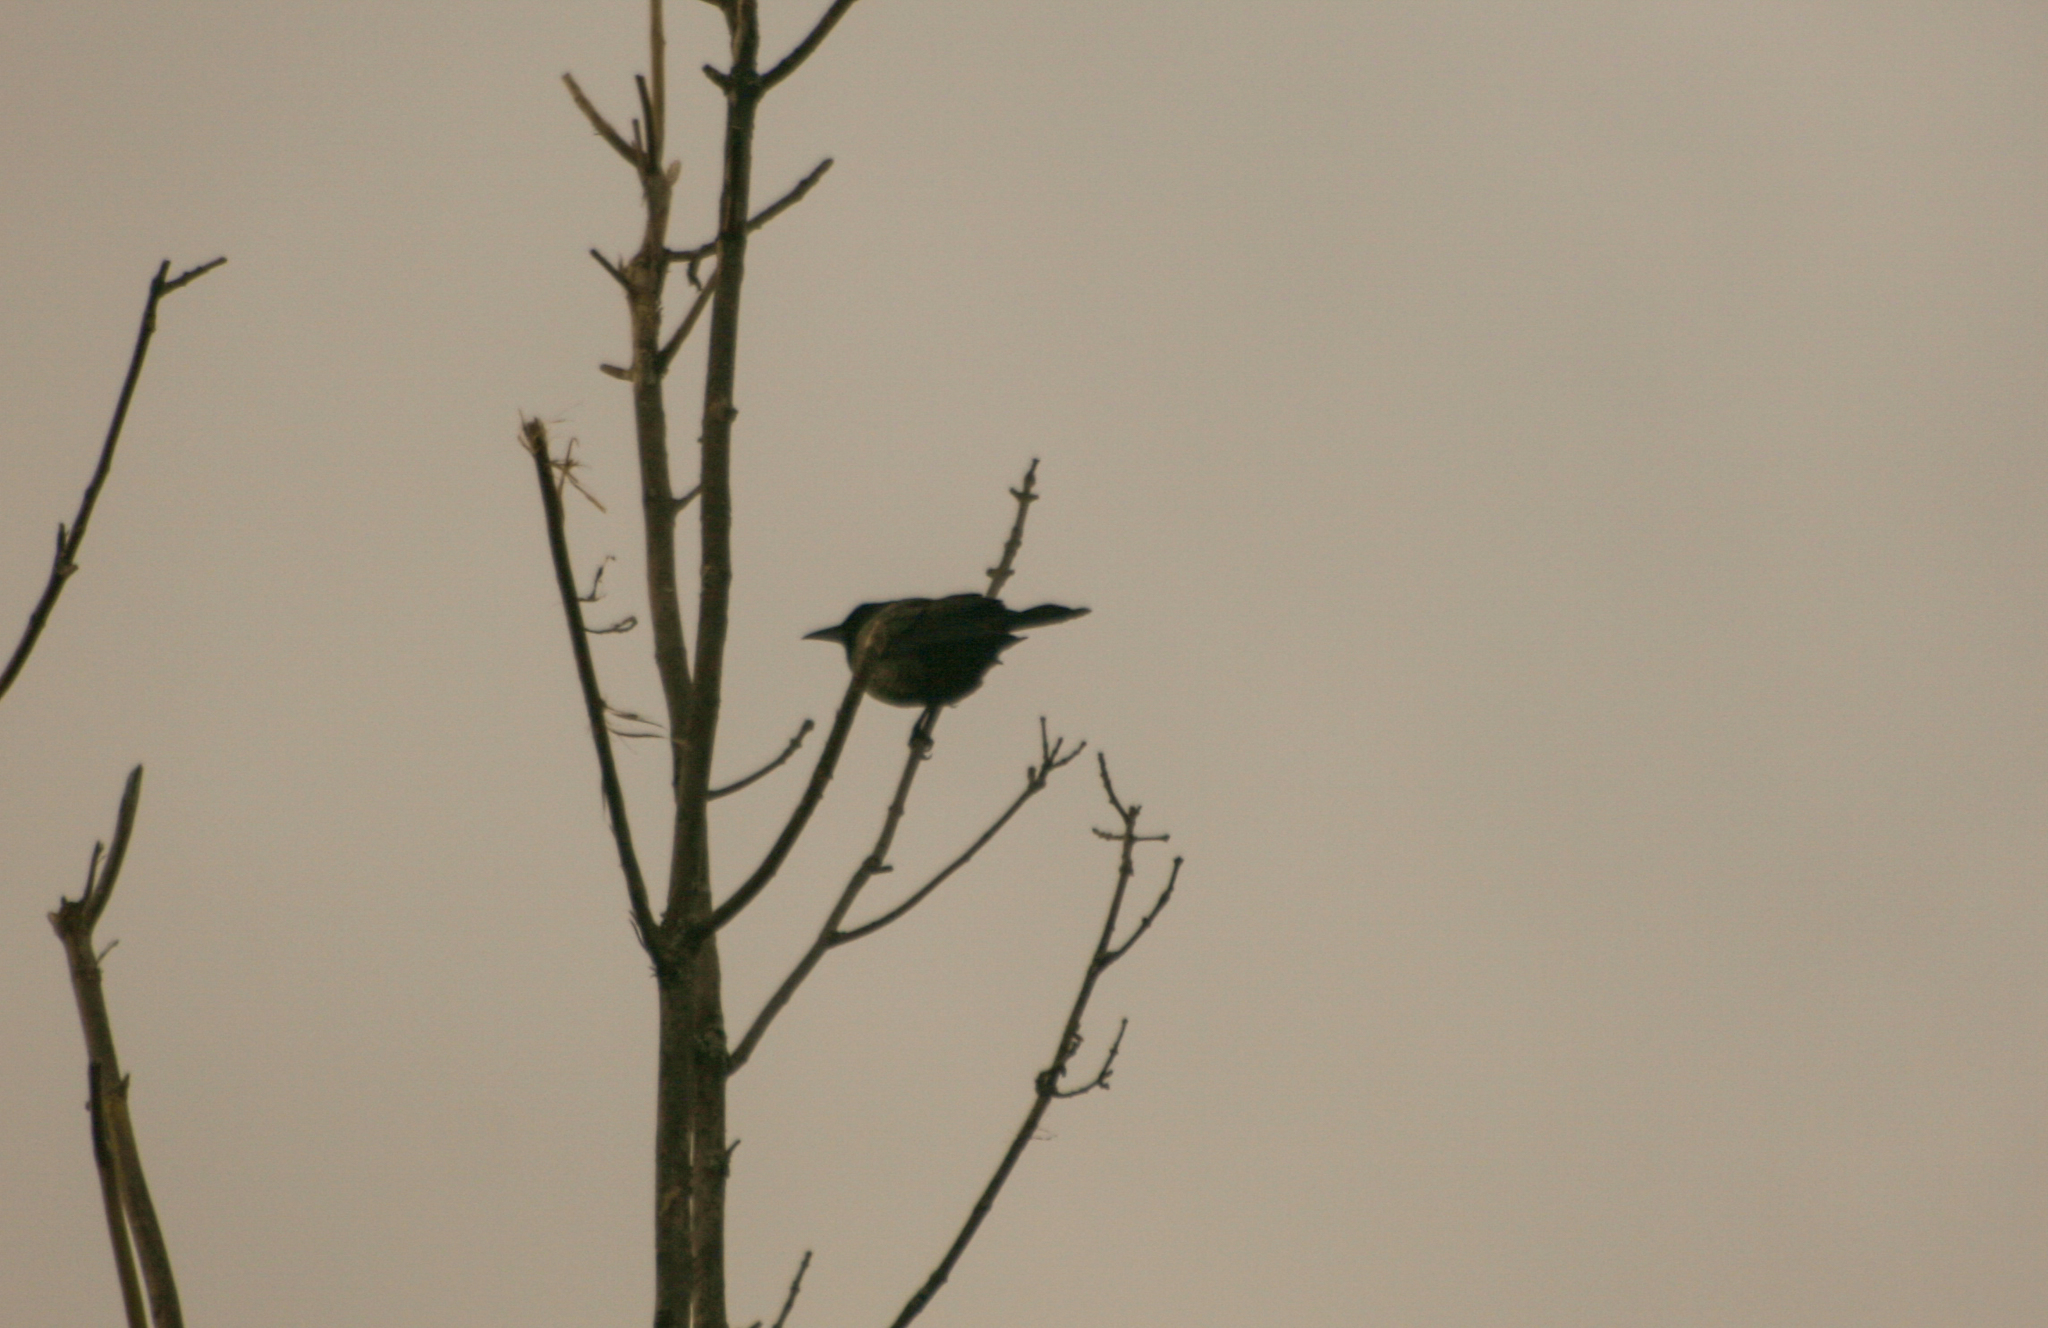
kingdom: Animalia
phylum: Chordata
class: Aves
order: Passeriformes
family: Icteridae
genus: Quiscalus
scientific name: Quiscalus quiscula
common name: Common grackle
